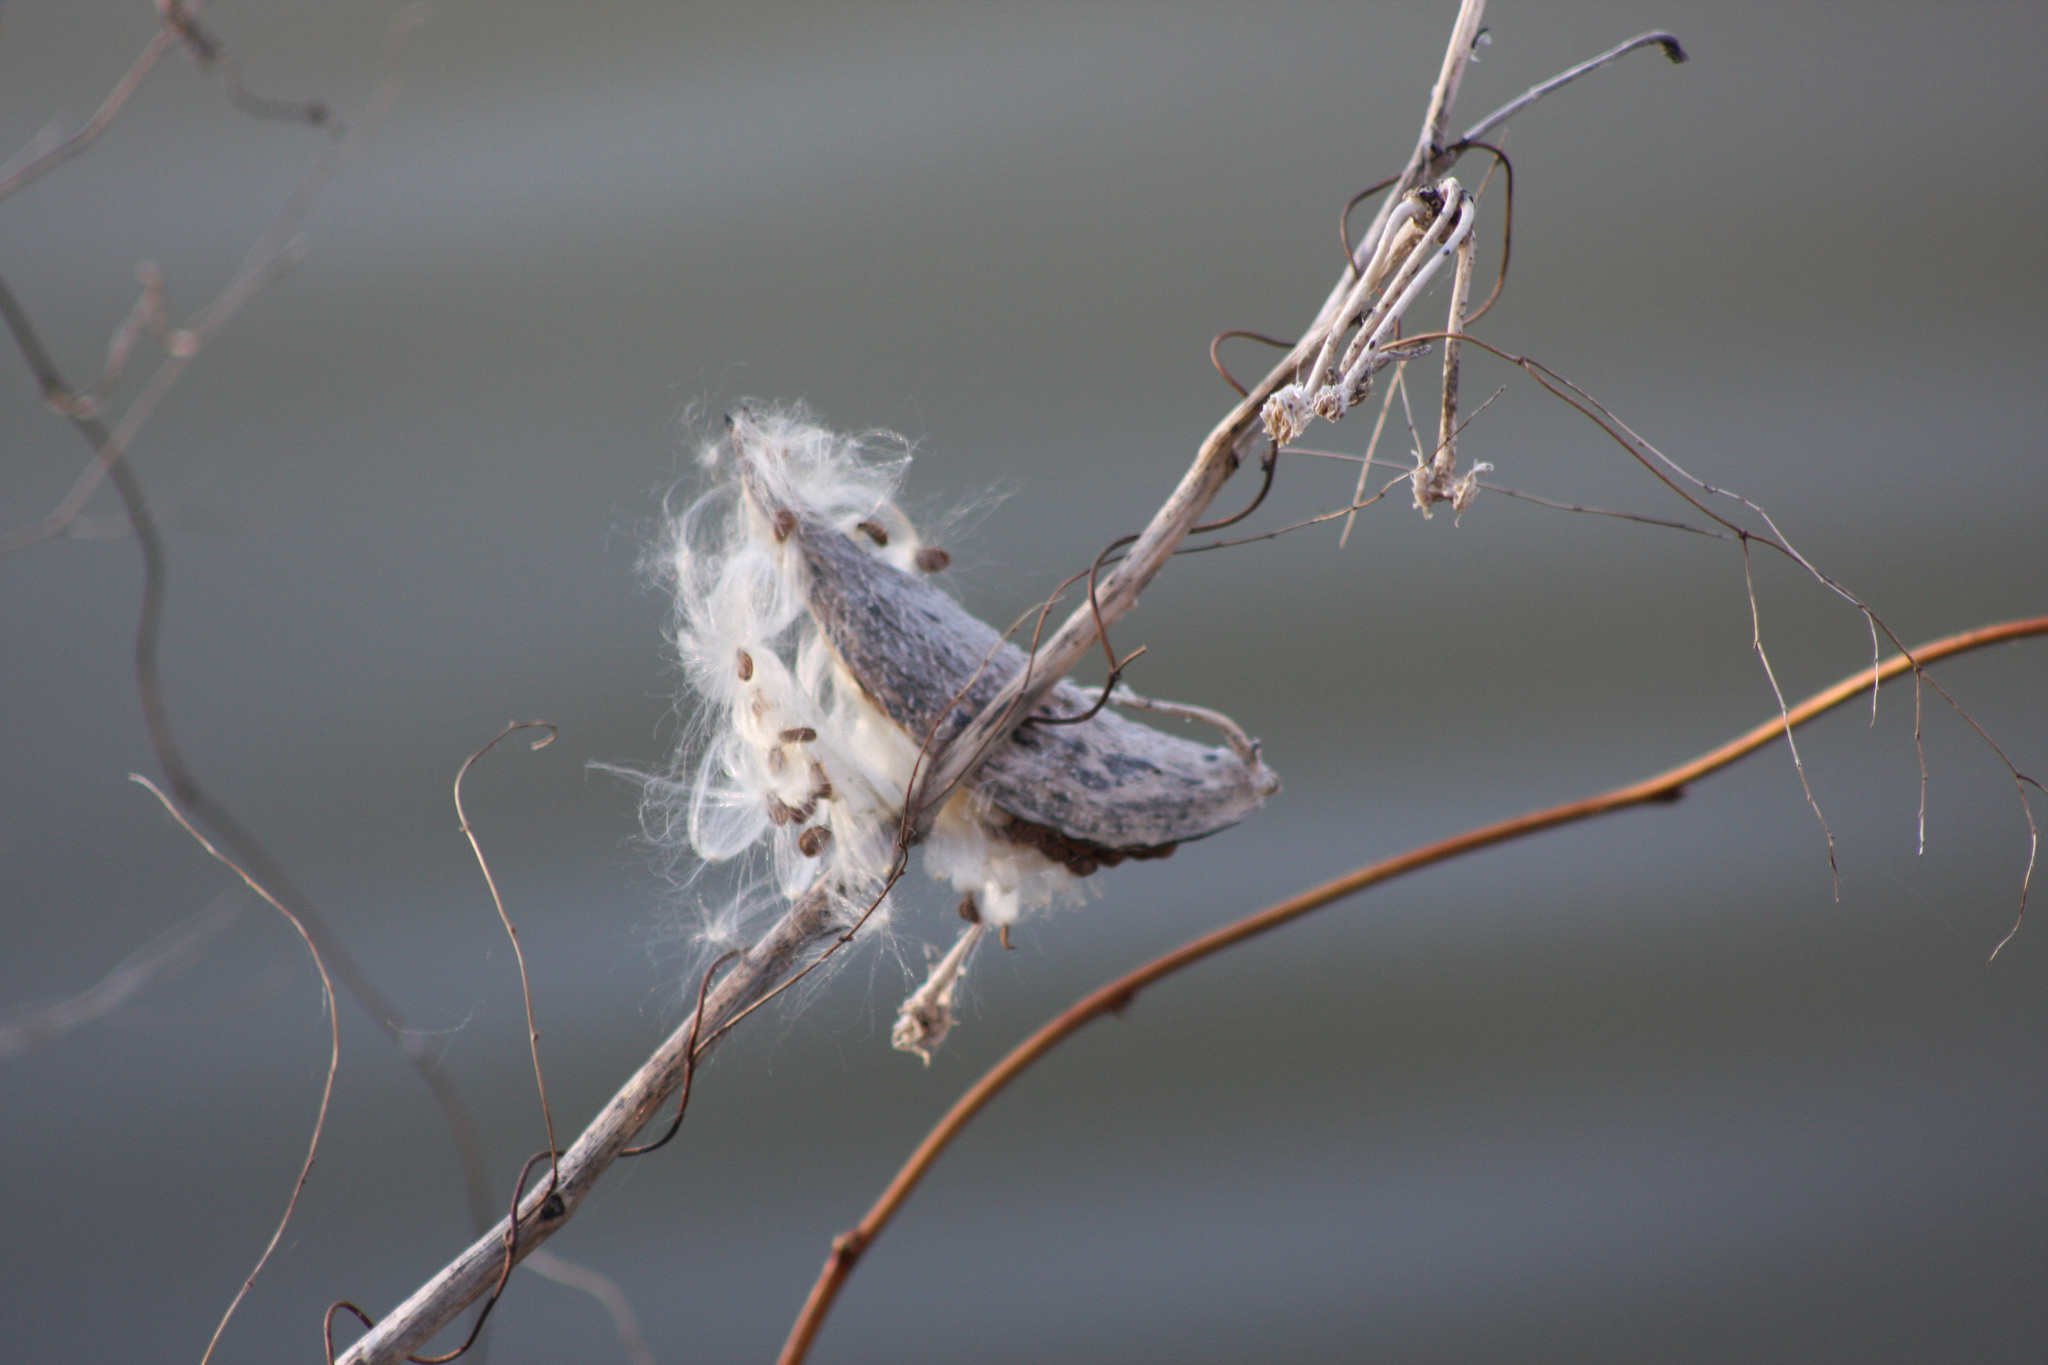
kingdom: Plantae
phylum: Tracheophyta
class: Magnoliopsida
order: Gentianales
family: Apocynaceae
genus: Asclepias
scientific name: Asclepias syriaca
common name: Common milkweed
